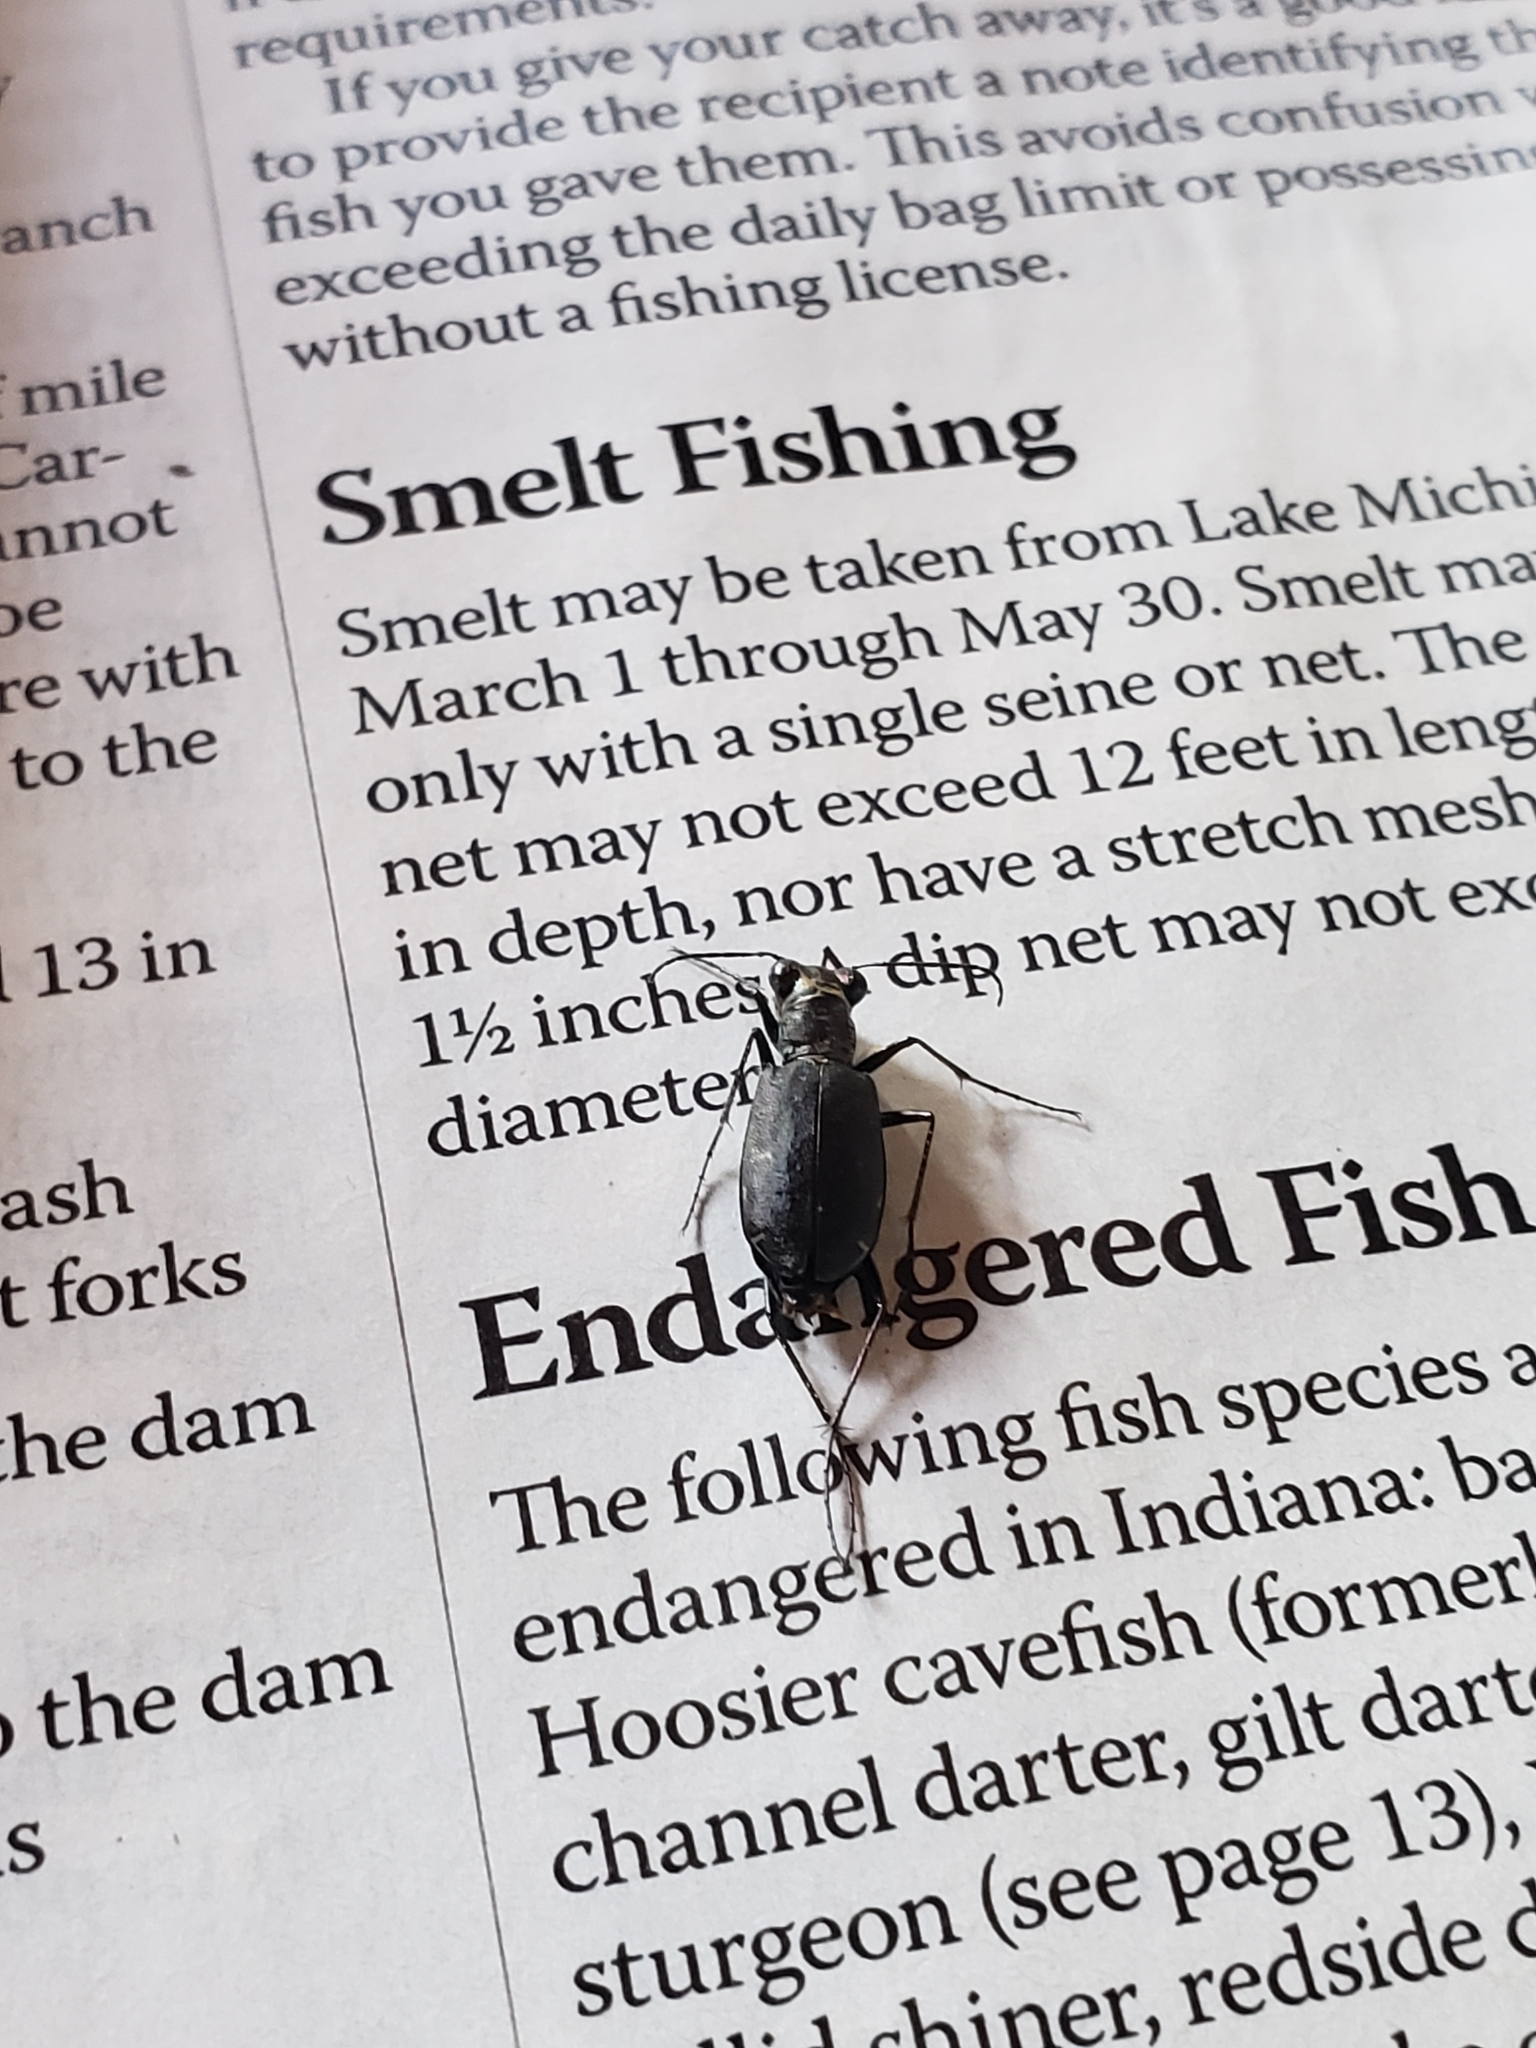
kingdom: Animalia
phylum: Arthropoda
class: Insecta
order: Coleoptera
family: Carabidae
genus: Cicindela
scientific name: Cicindela punctulata
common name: Punctured tiger beetle
